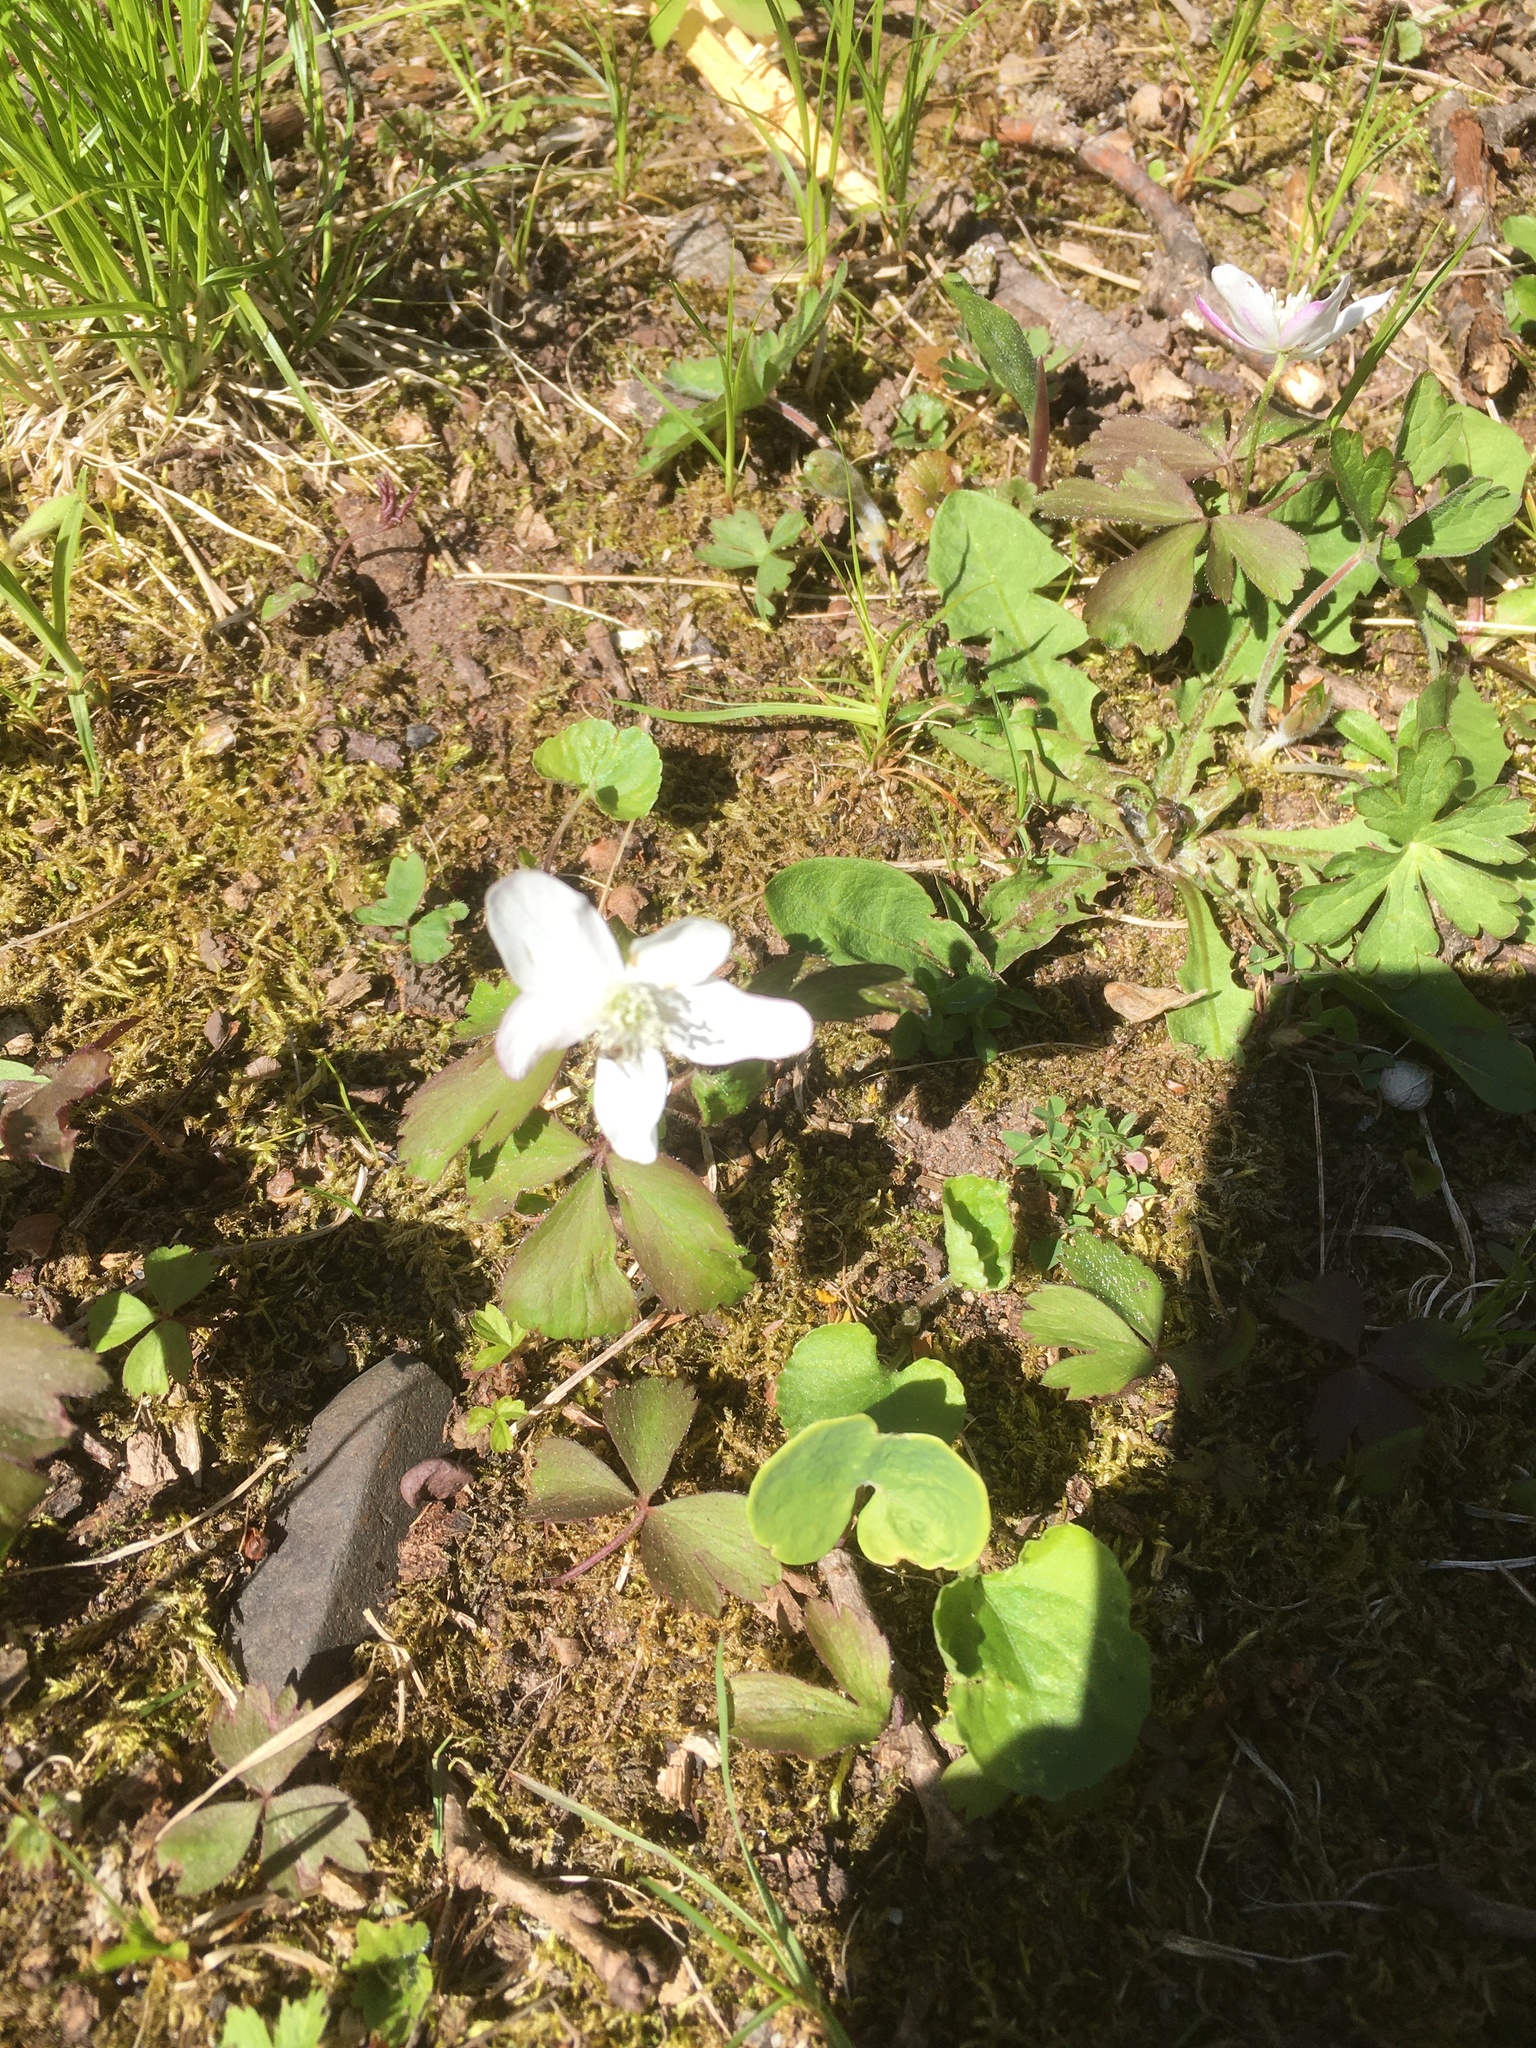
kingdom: Plantae
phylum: Tracheophyta
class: Magnoliopsida
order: Ranunculales
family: Ranunculaceae
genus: Anemone
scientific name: Anemone quinquefolia
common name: Wood anemone
